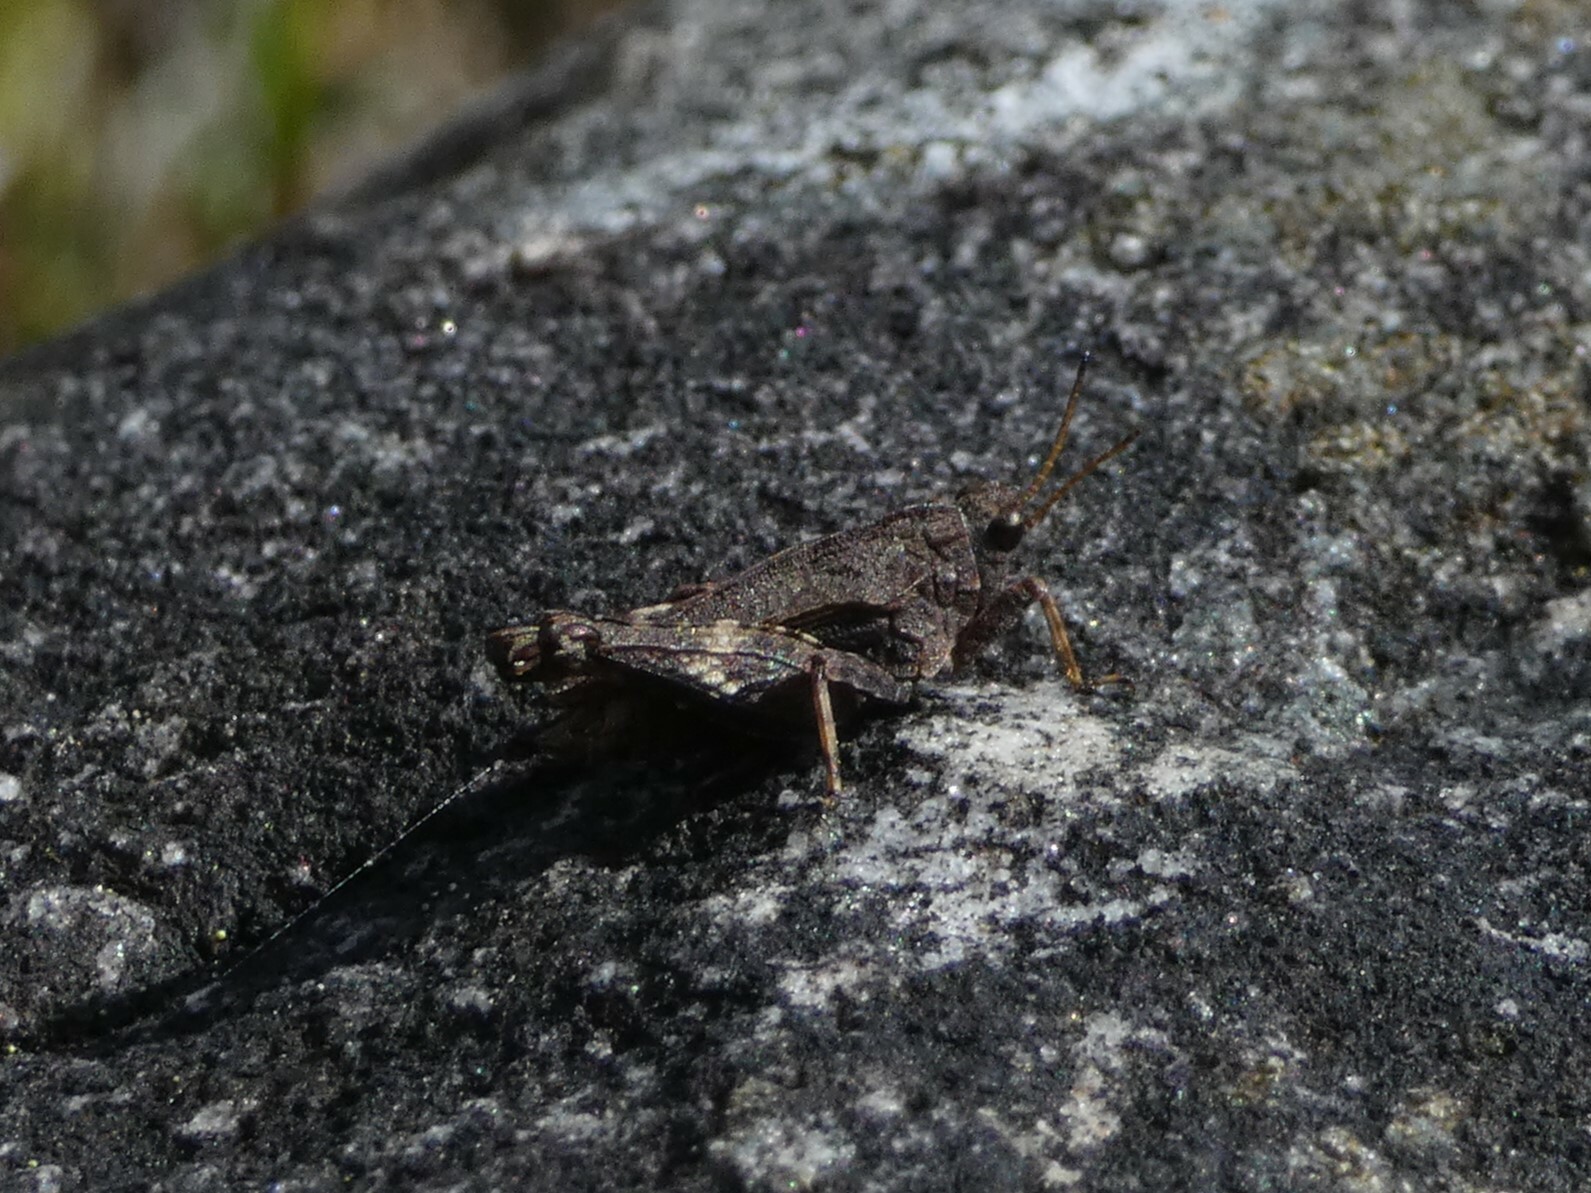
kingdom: Animalia
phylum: Arthropoda
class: Insecta
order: Orthoptera
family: Tetrigidae
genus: Tetrix
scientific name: Tetrix undulata
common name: Common groundhopper
